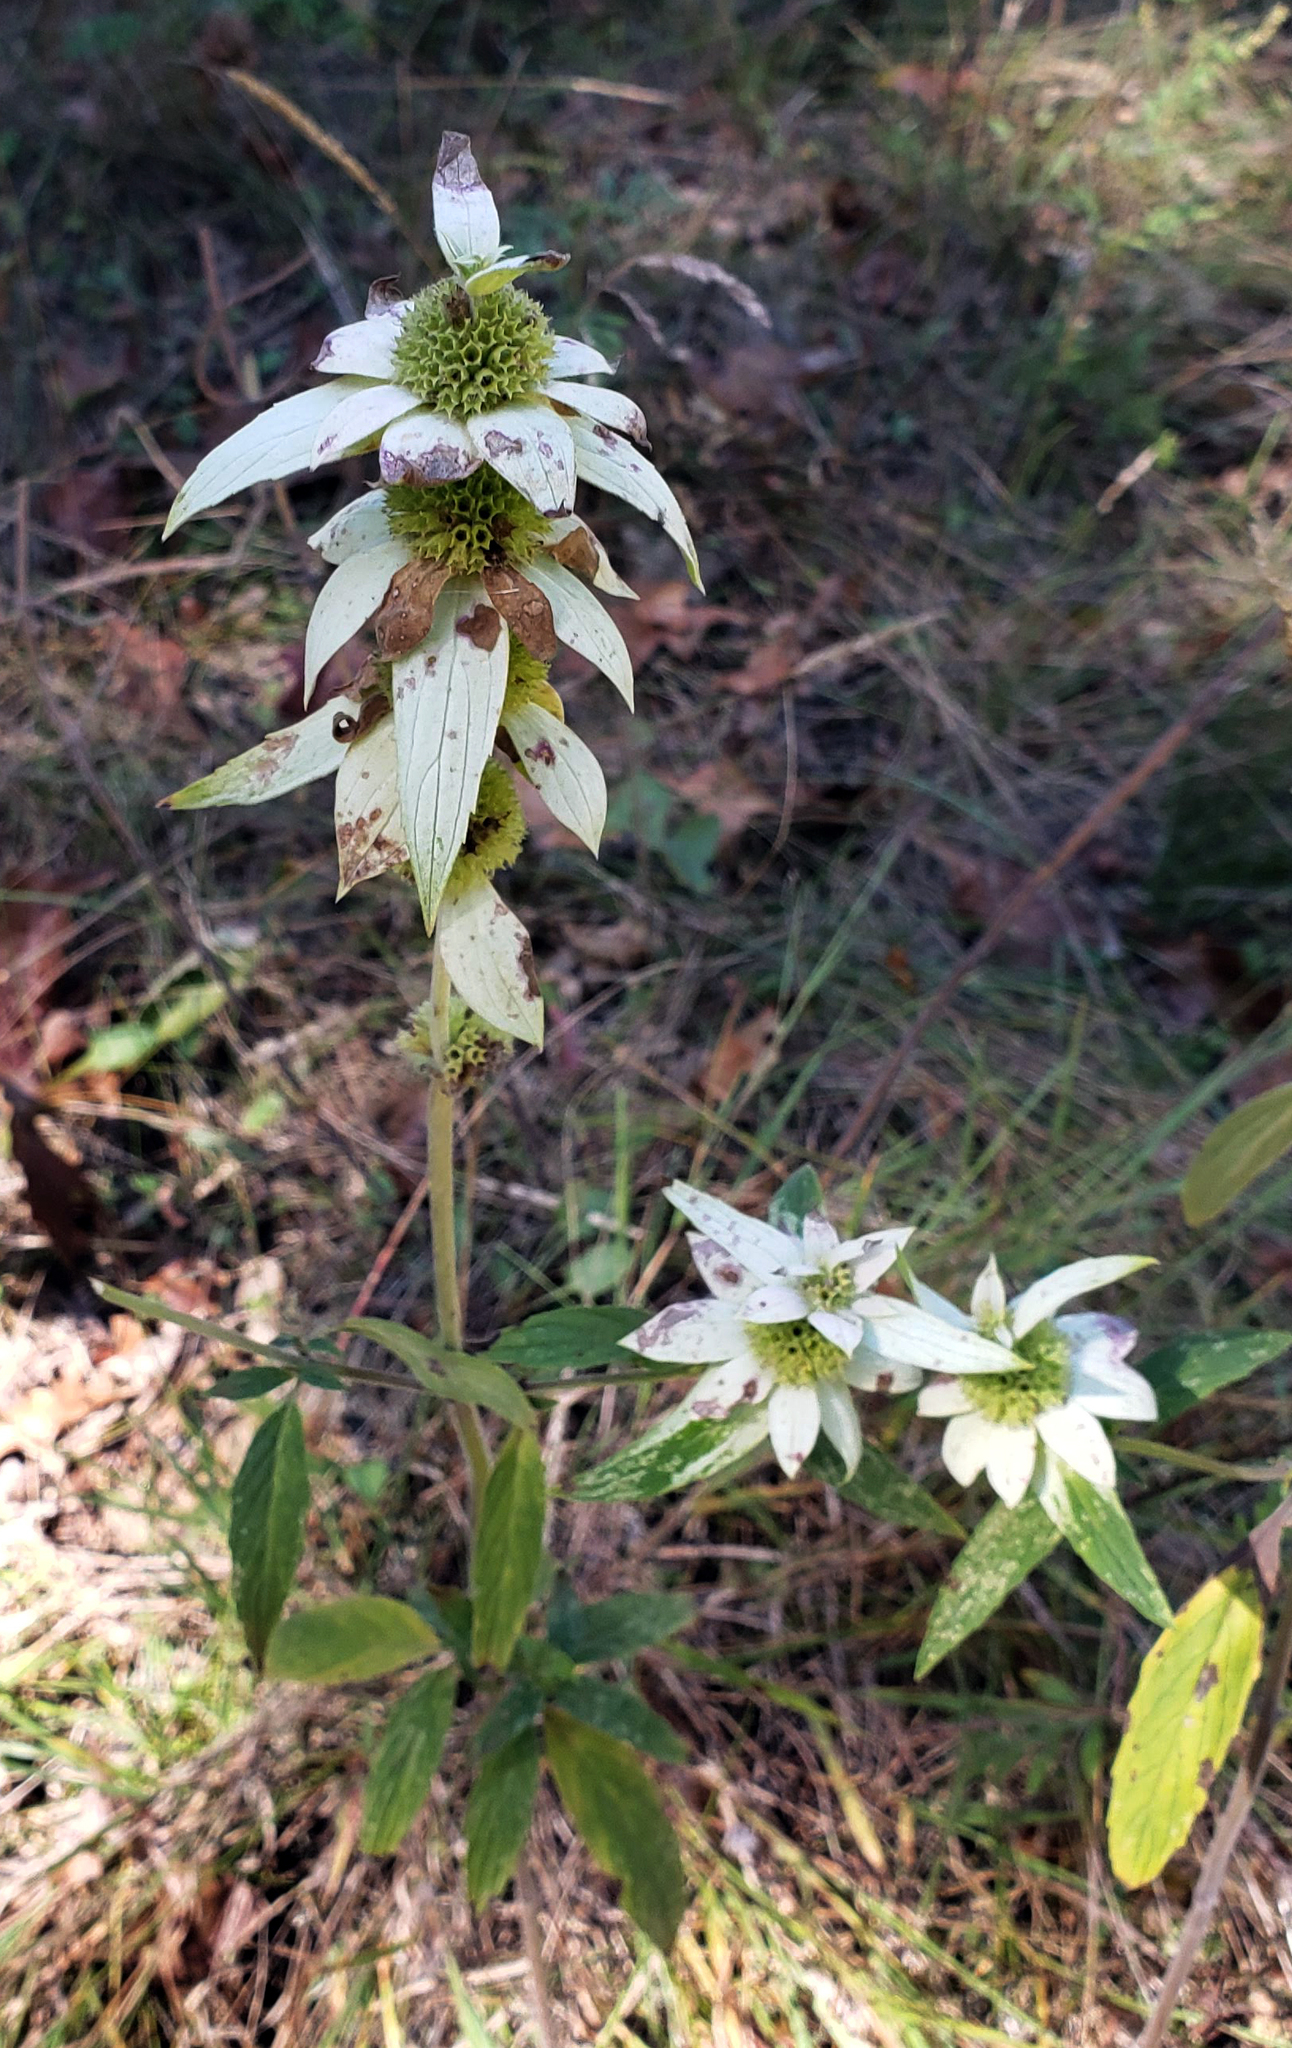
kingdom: Plantae
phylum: Tracheophyta
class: Magnoliopsida
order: Lamiales
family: Lamiaceae
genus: Monarda
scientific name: Monarda punctata
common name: Dotted monarda
